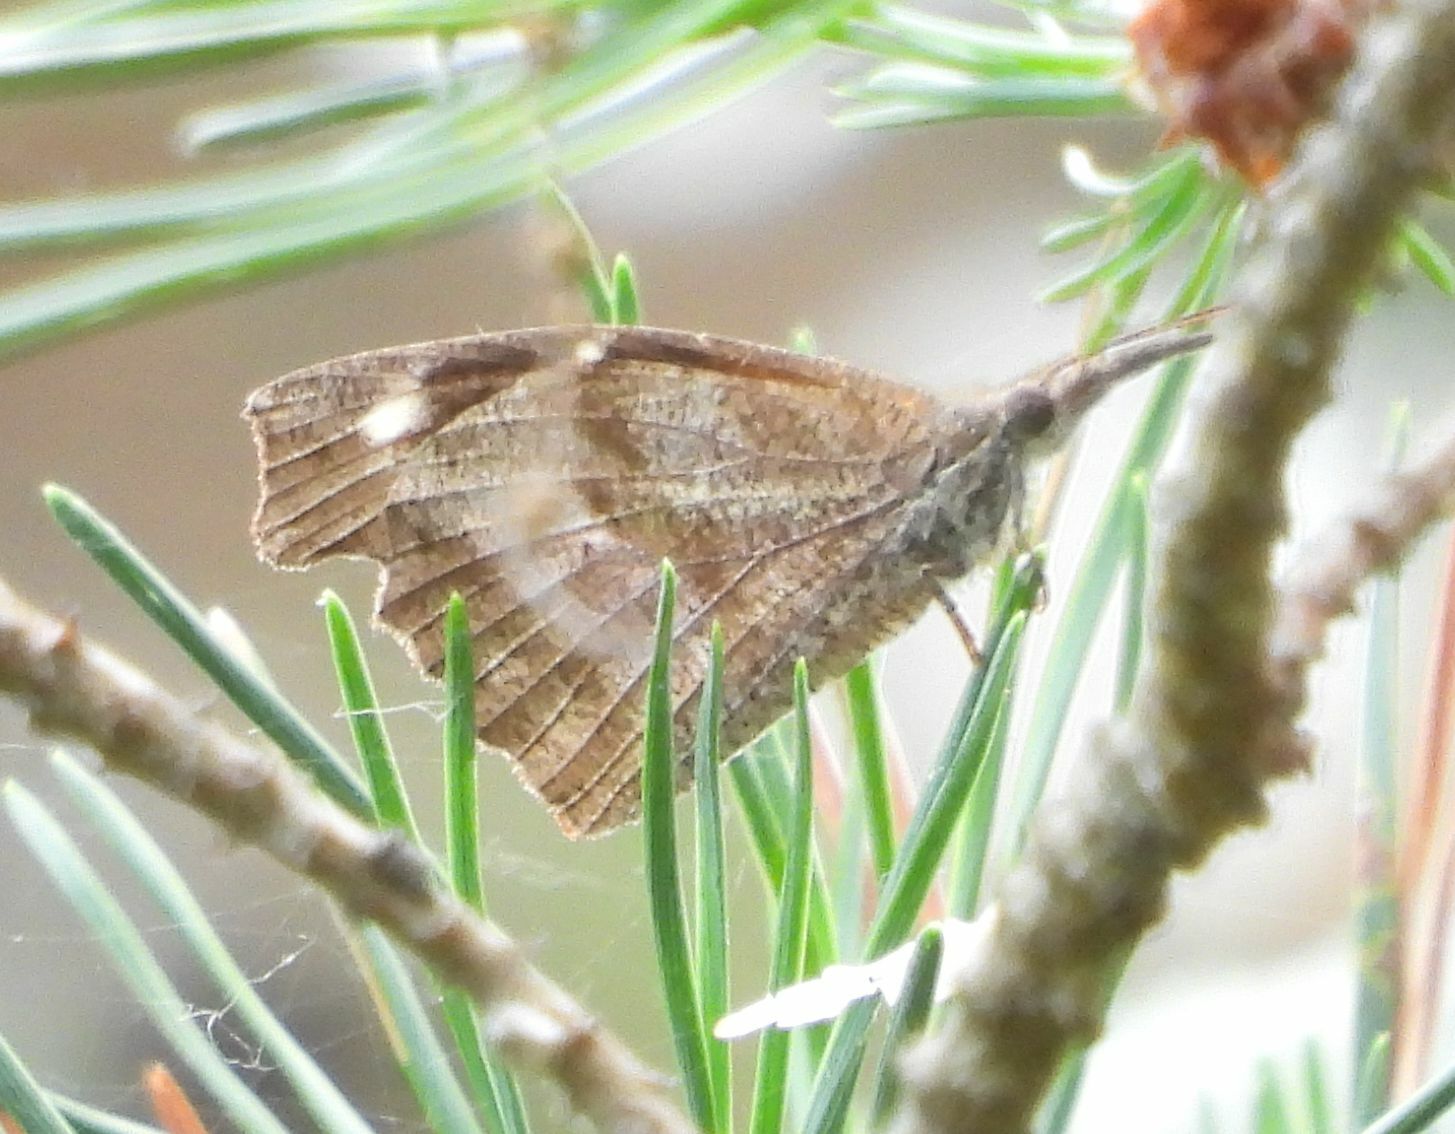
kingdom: Animalia
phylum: Arthropoda
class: Insecta
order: Lepidoptera
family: Nymphalidae
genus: Libytheana
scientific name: Libytheana carinenta
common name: American snout
